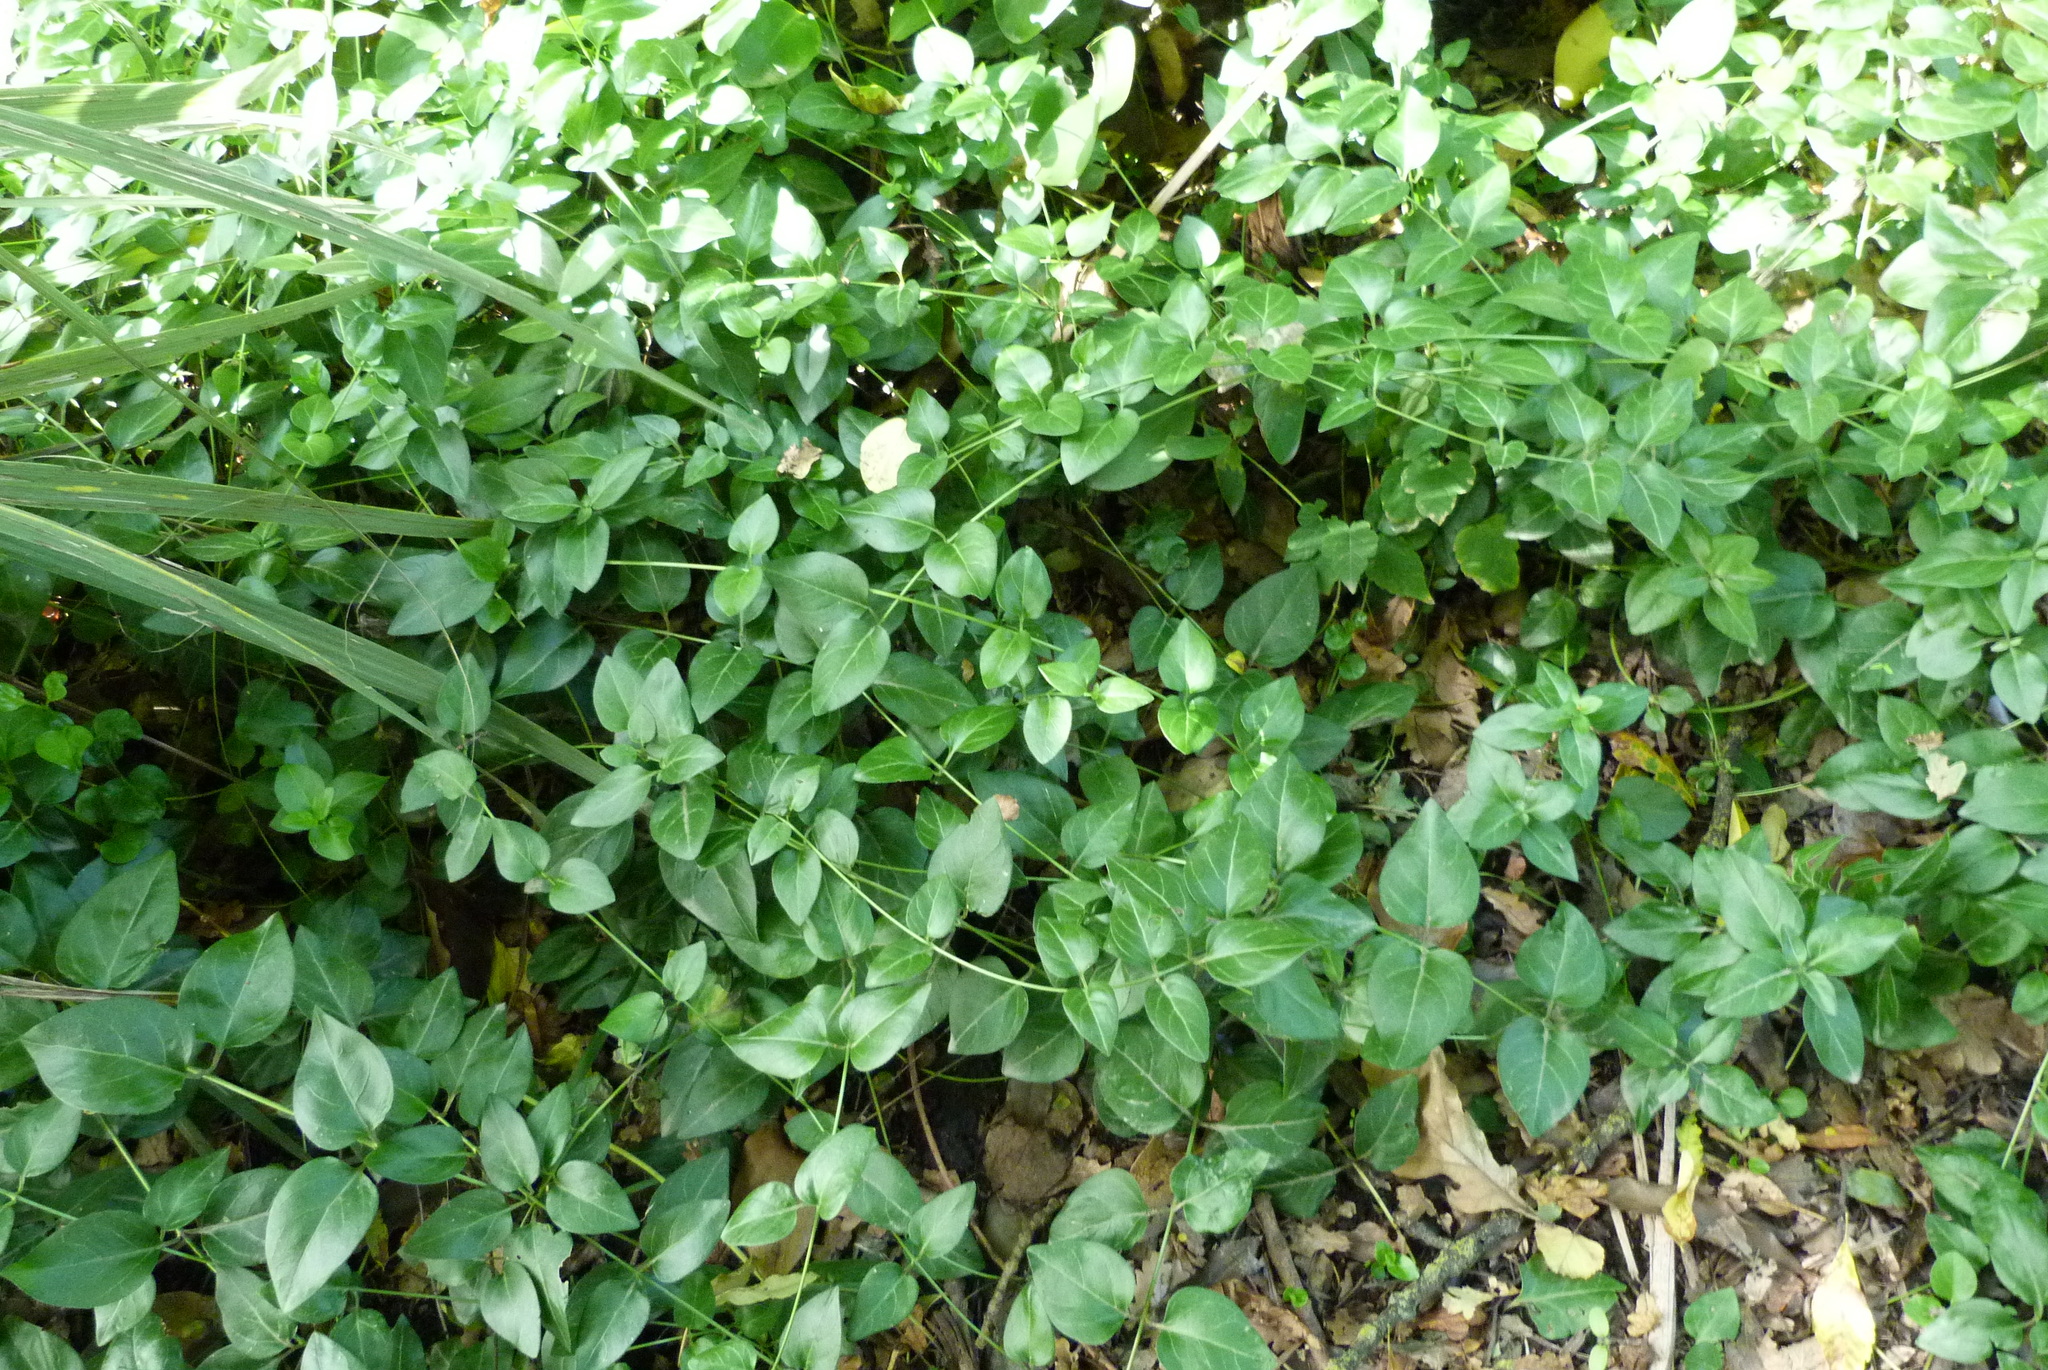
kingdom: Plantae
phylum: Tracheophyta
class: Magnoliopsida
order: Gentianales
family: Apocynaceae
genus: Vinca
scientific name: Vinca major
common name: Greater periwinkle
